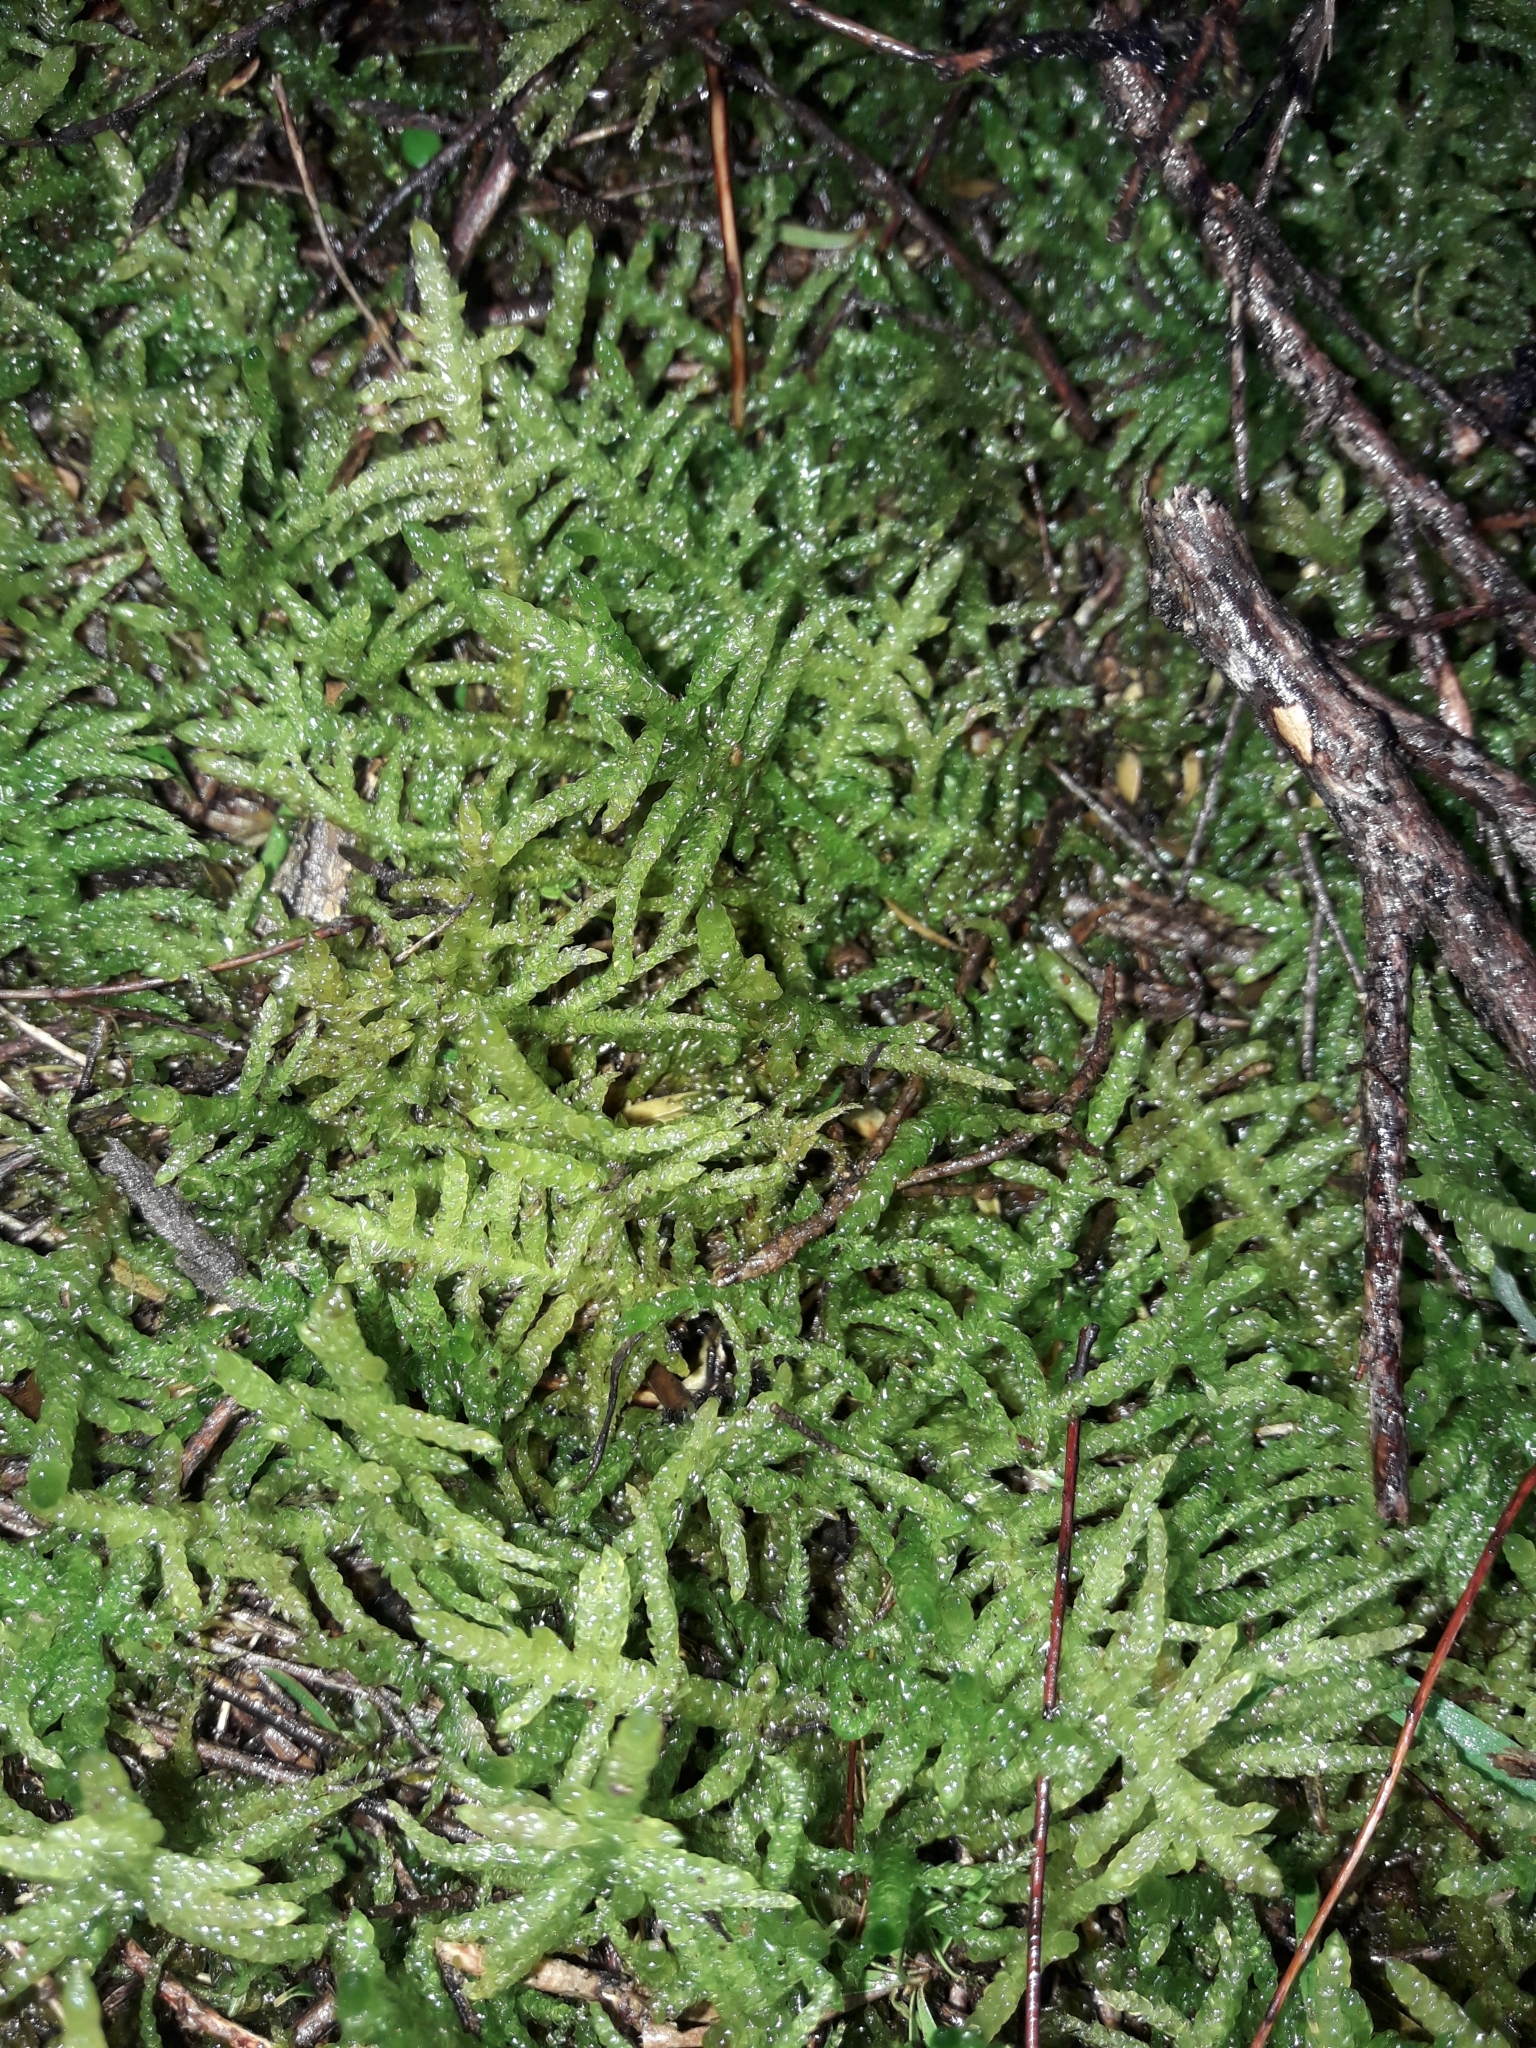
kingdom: Plantae
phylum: Bryophyta
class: Bryopsida
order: Hypnales
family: Brachytheciaceae
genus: Pseudoscleropodium
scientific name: Pseudoscleropodium purum
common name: Neat feather-moss
